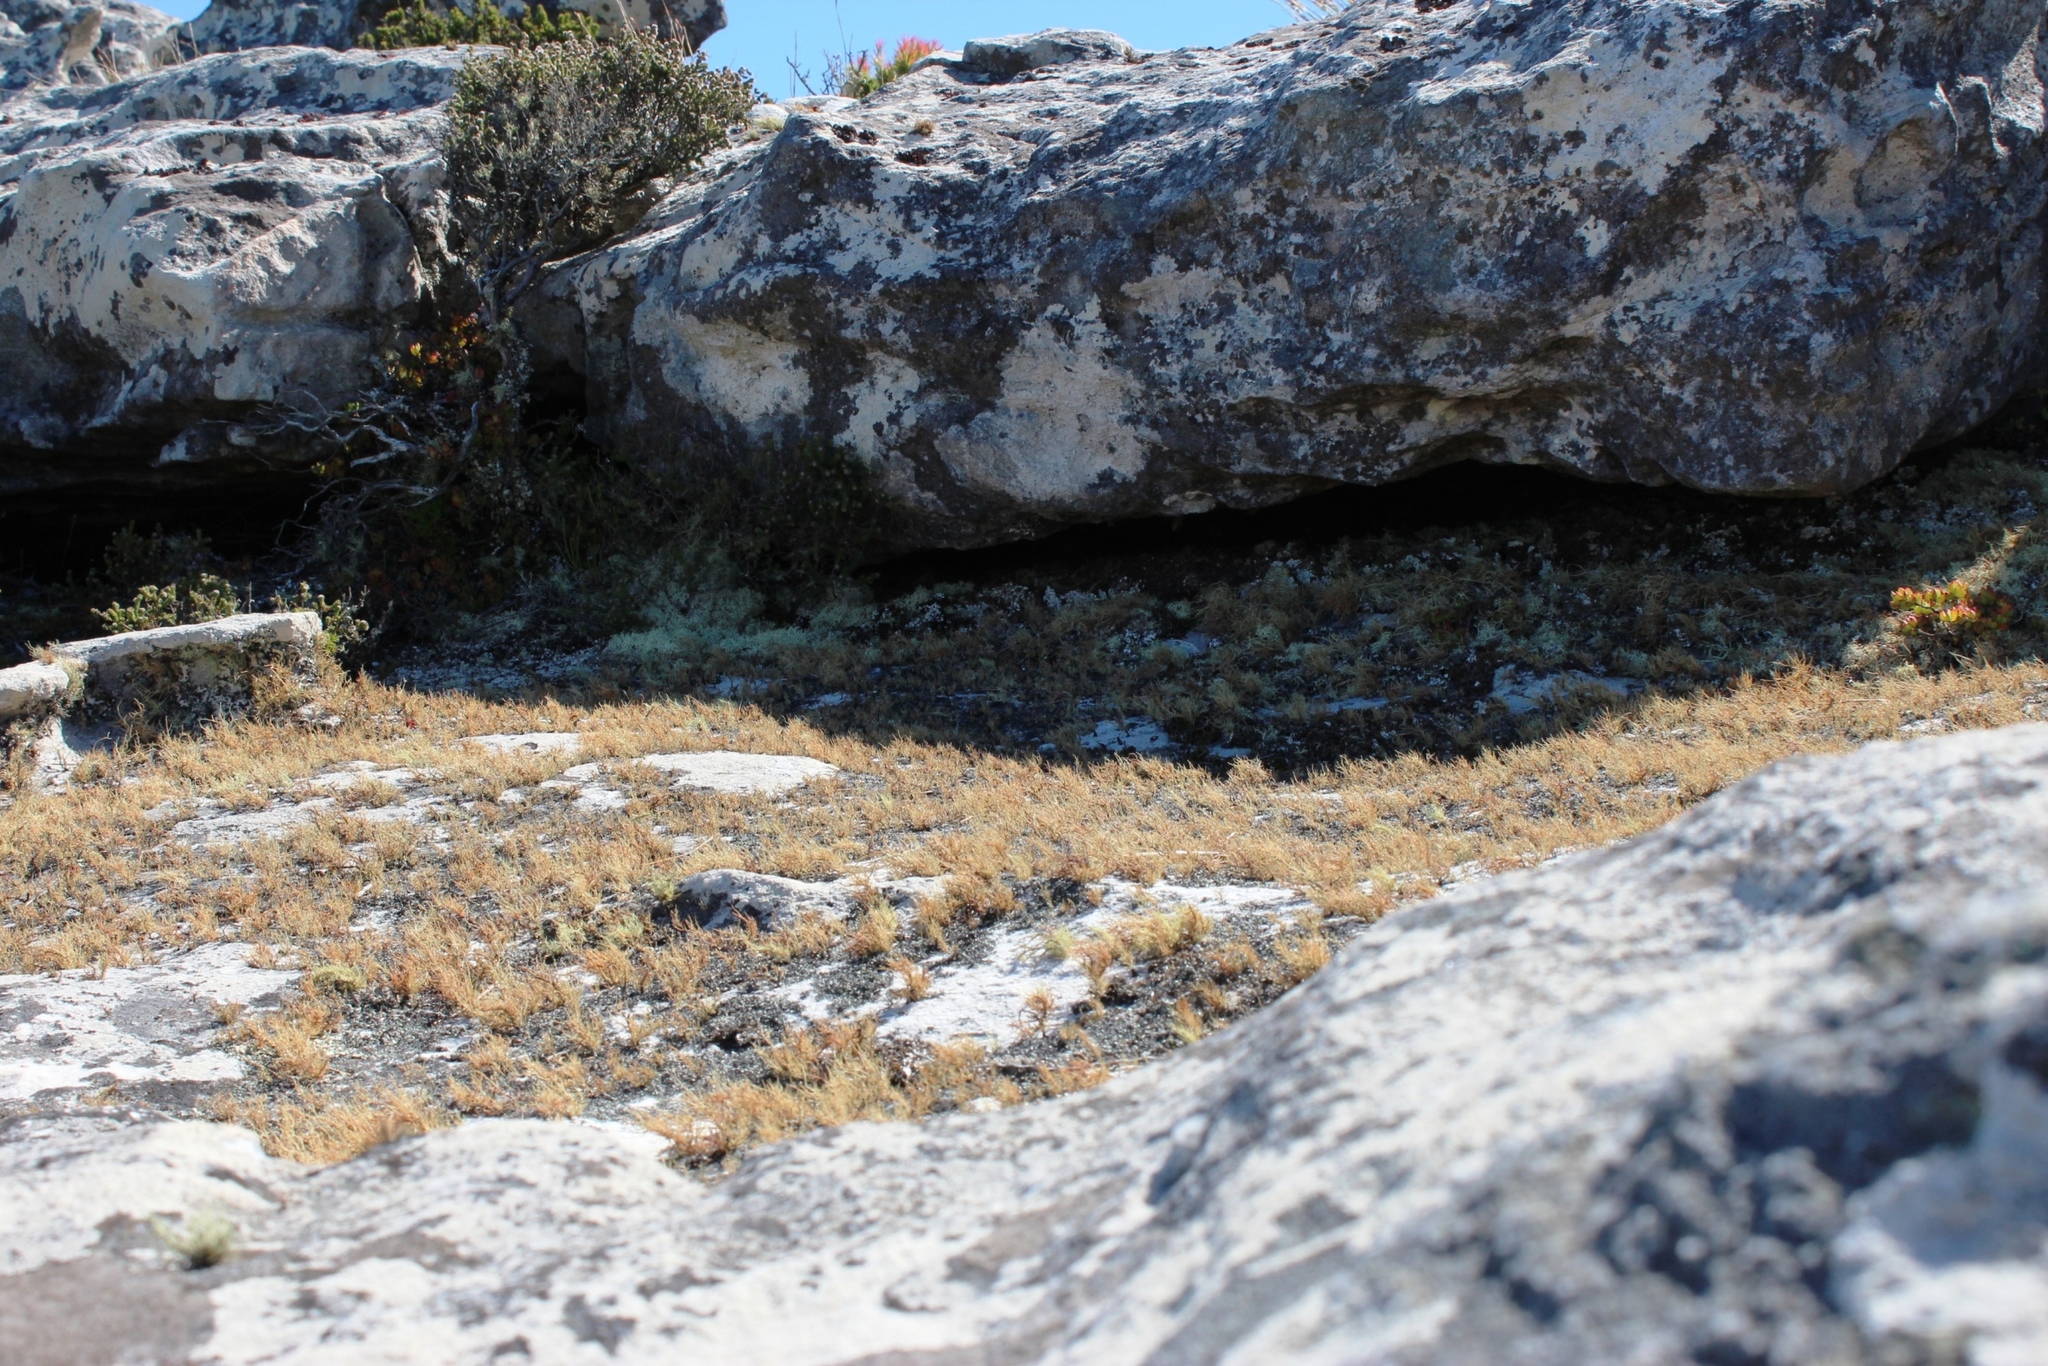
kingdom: Fungi
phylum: Ascomycota
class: Lecanoromycetes
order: Lecanorales
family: Parmeliaceae
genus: Usnea
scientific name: Usnea maculata
